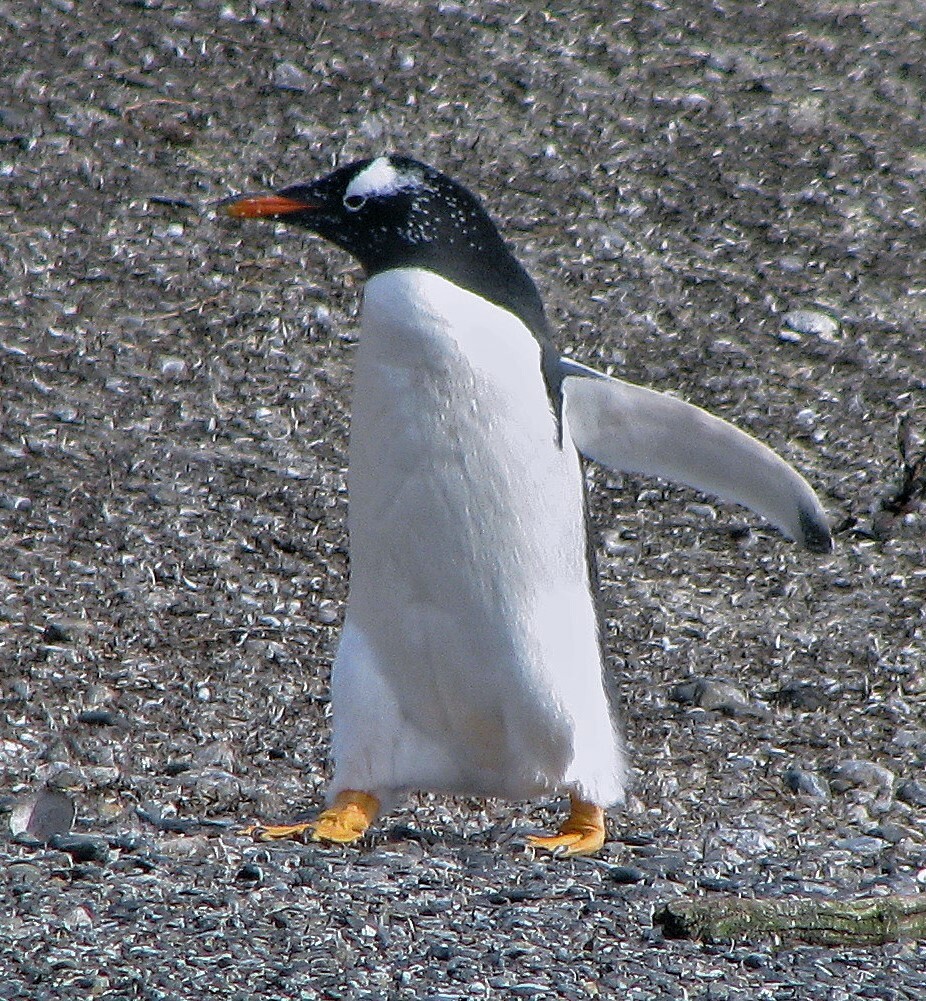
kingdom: Animalia
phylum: Chordata
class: Aves
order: Sphenisciformes
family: Spheniscidae
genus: Pygoscelis
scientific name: Pygoscelis papua
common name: Gentoo penguin
